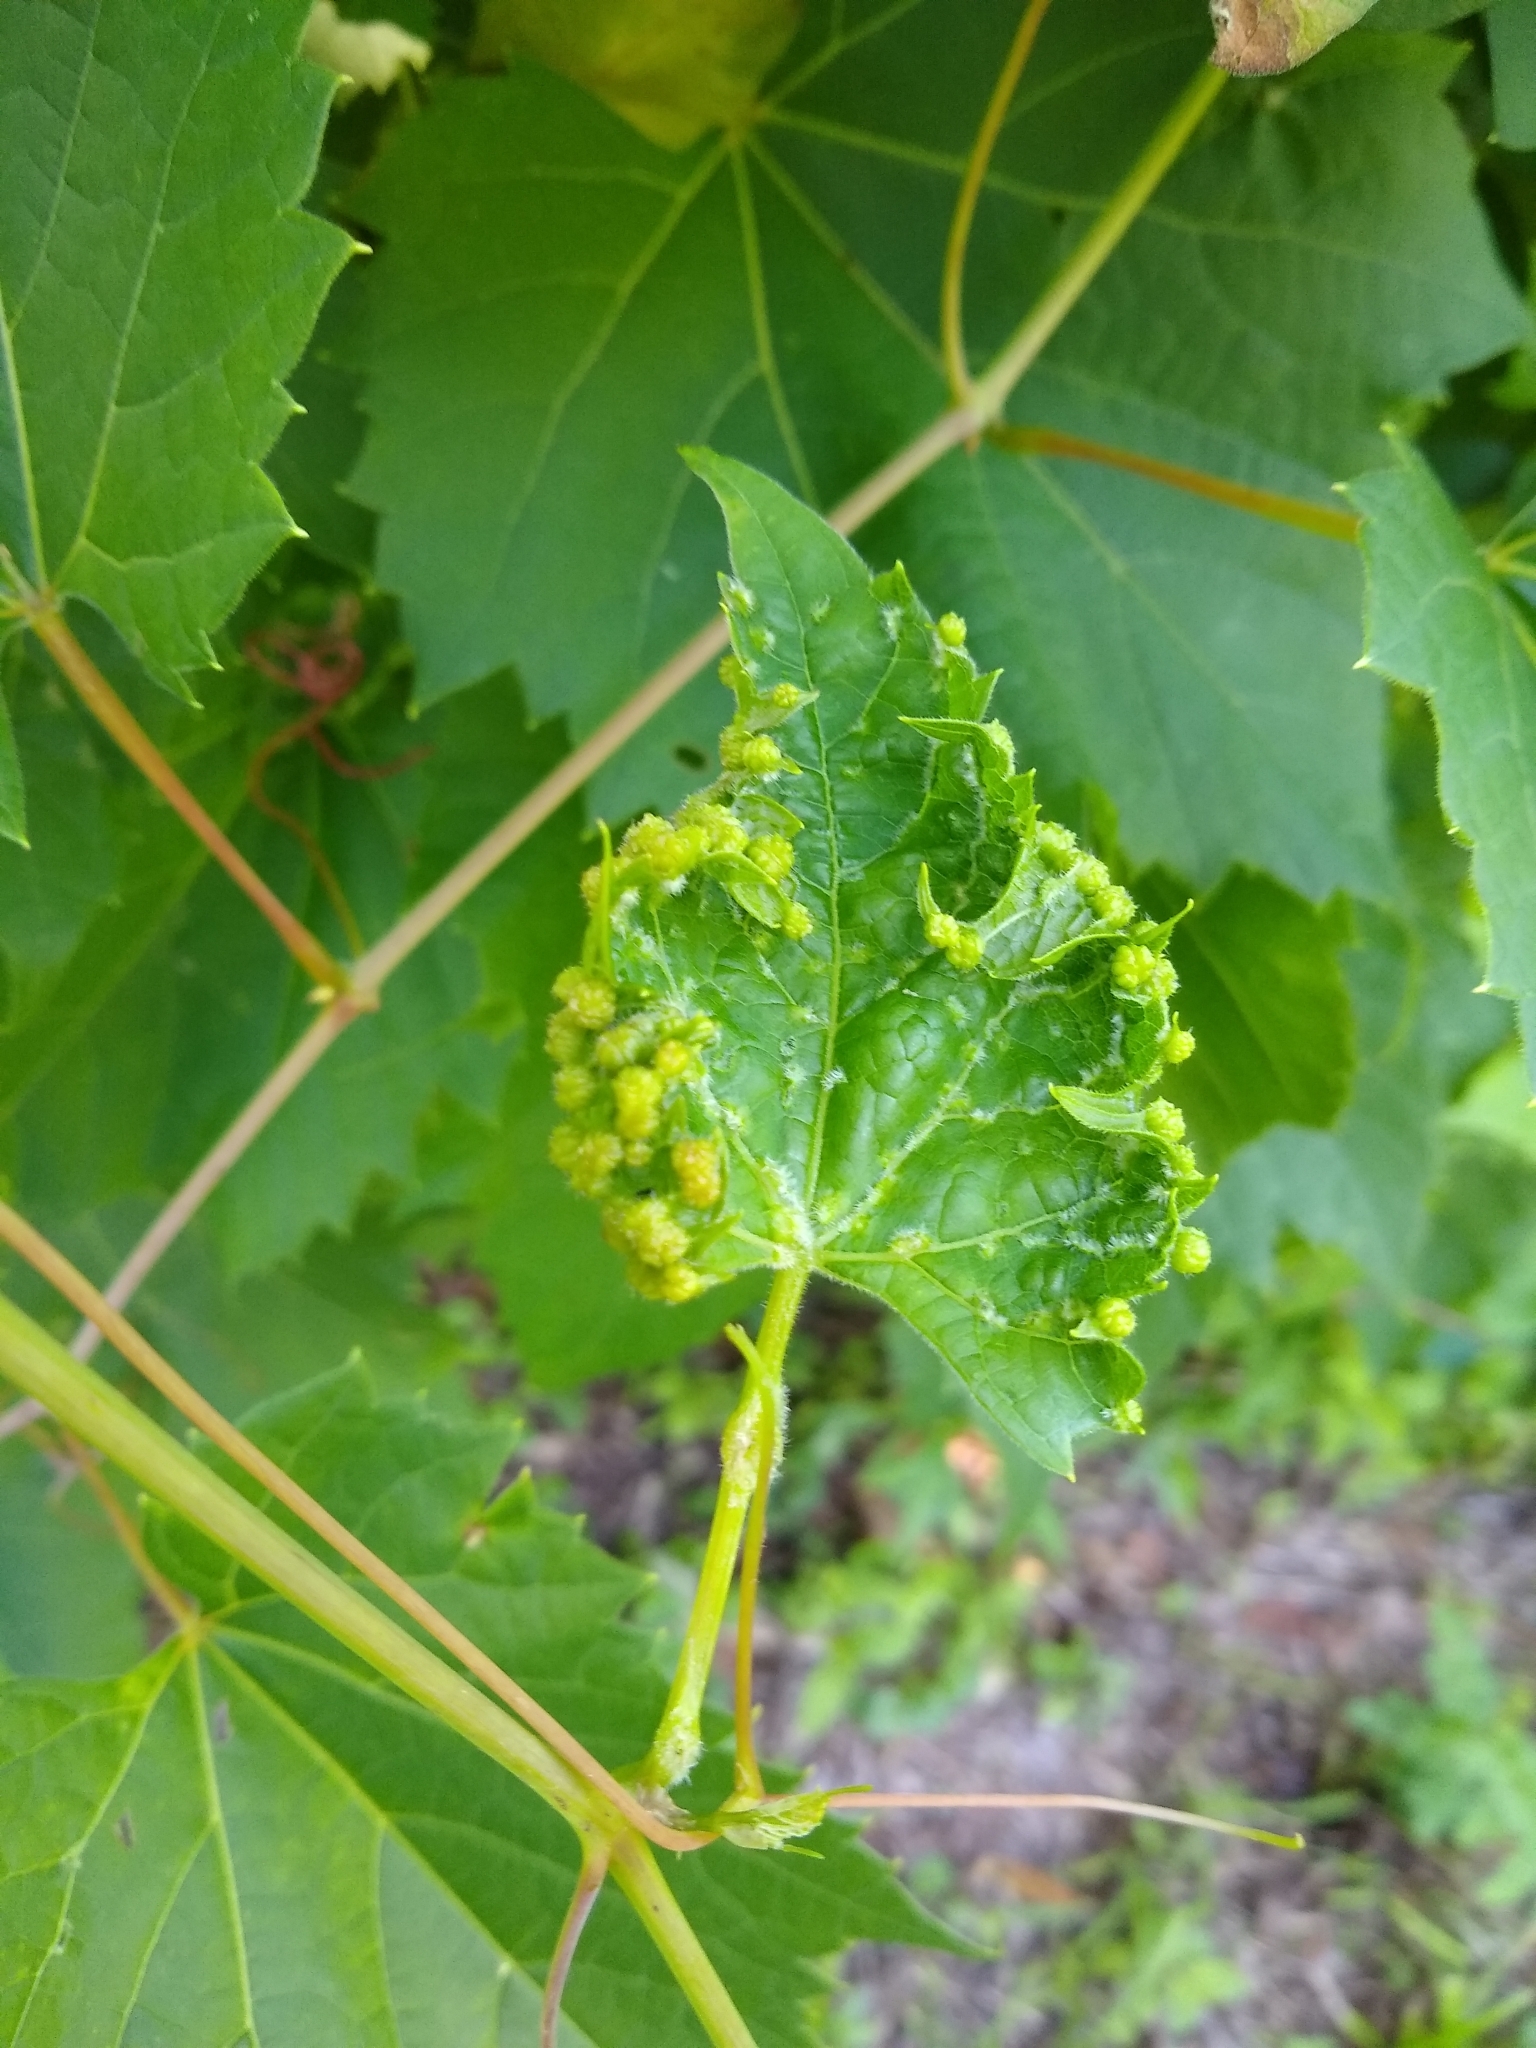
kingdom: Animalia
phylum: Arthropoda
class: Insecta
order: Hemiptera
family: Phylloxeridae
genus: Daktulosphaira
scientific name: Daktulosphaira vitifoliae
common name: Grape phylloxera
